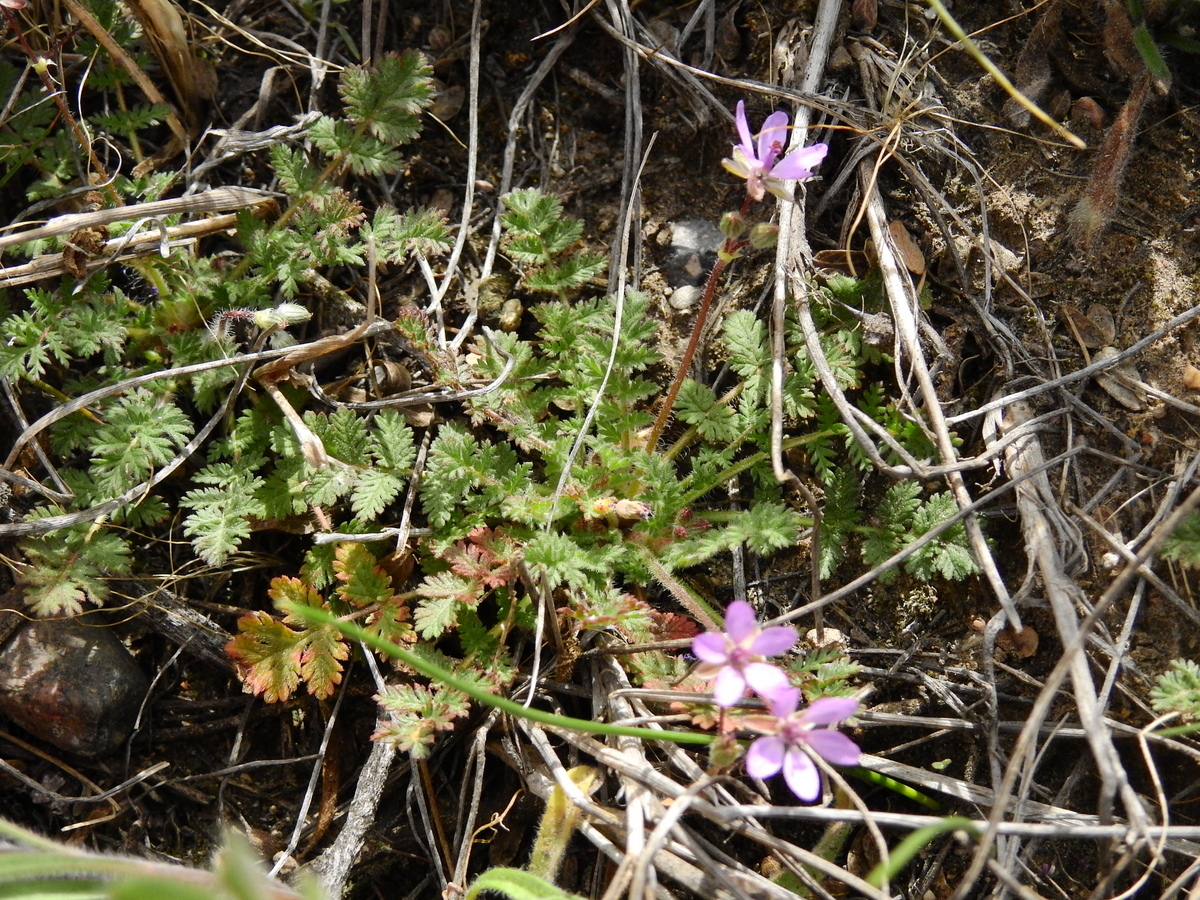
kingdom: Plantae
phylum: Tracheophyta
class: Magnoliopsida
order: Geraniales
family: Geraniaceae
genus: Erodium
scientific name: Erodium cicutarium
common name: Common stork's-bill
